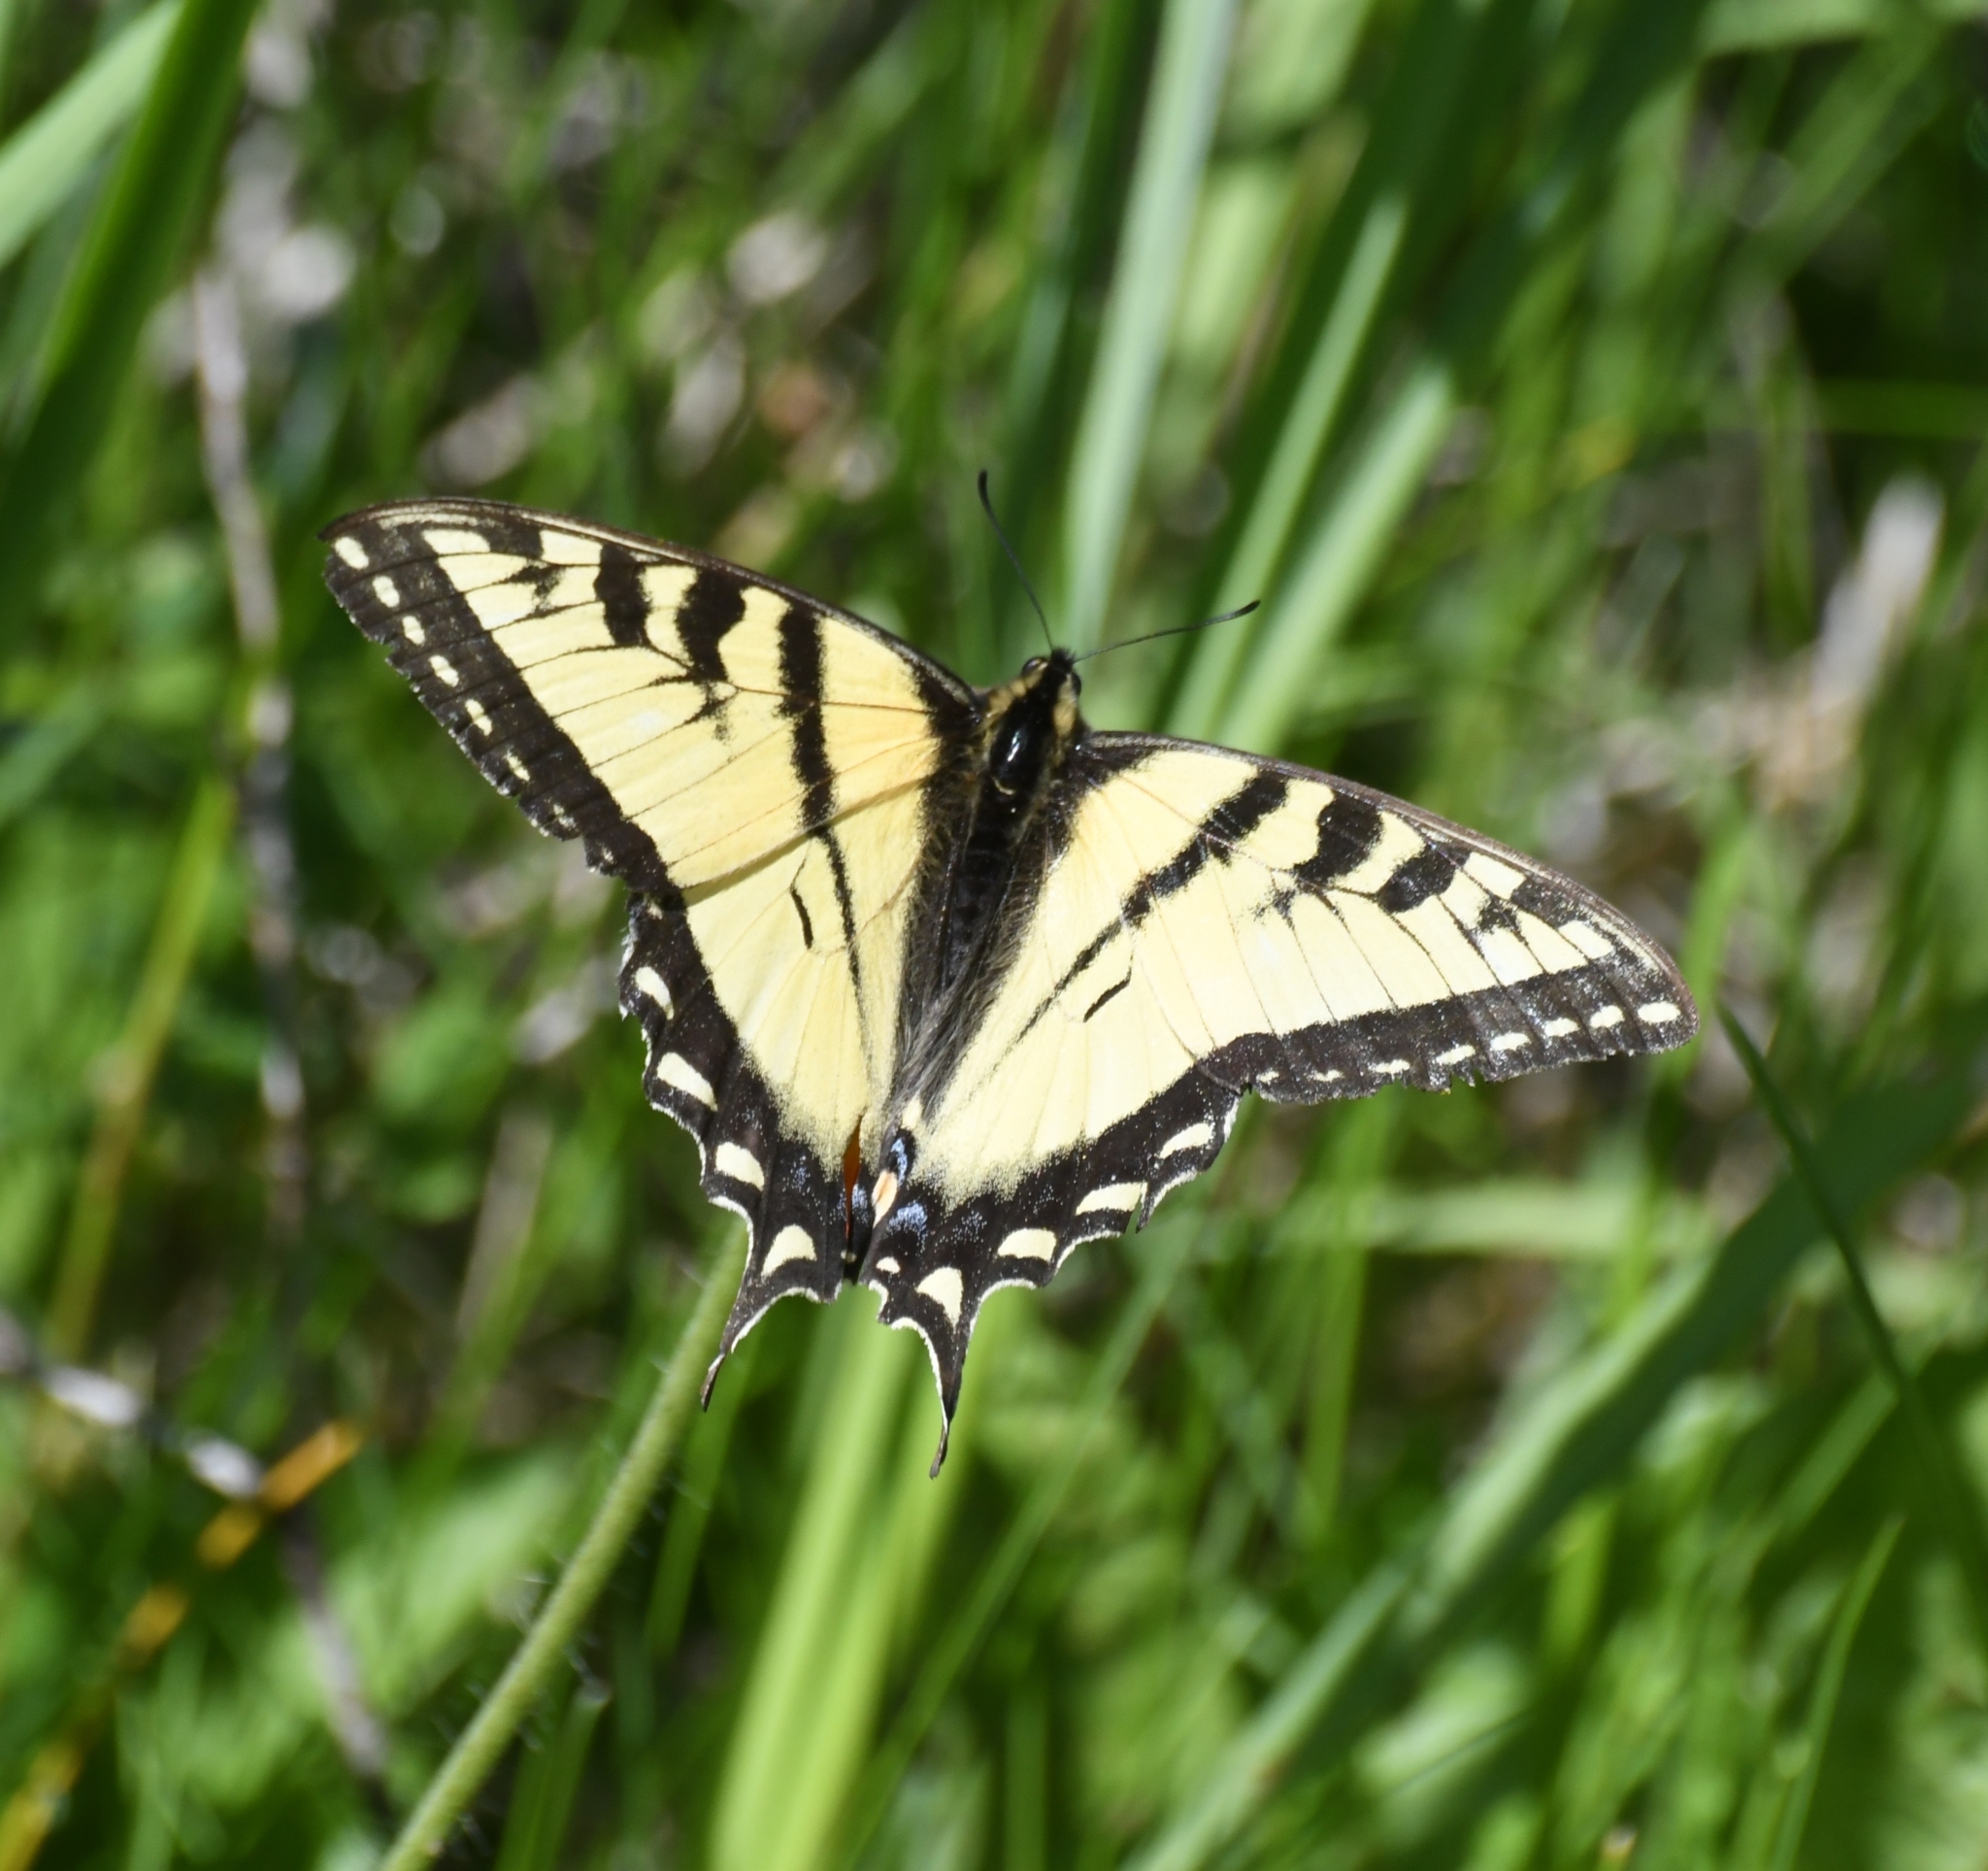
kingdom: Animalia
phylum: Arthropoda
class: Insecta
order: Lepidoptera
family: Papilionidae
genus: Papilio
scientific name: Papilio canadensis
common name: Canadian tiger swallowtail
